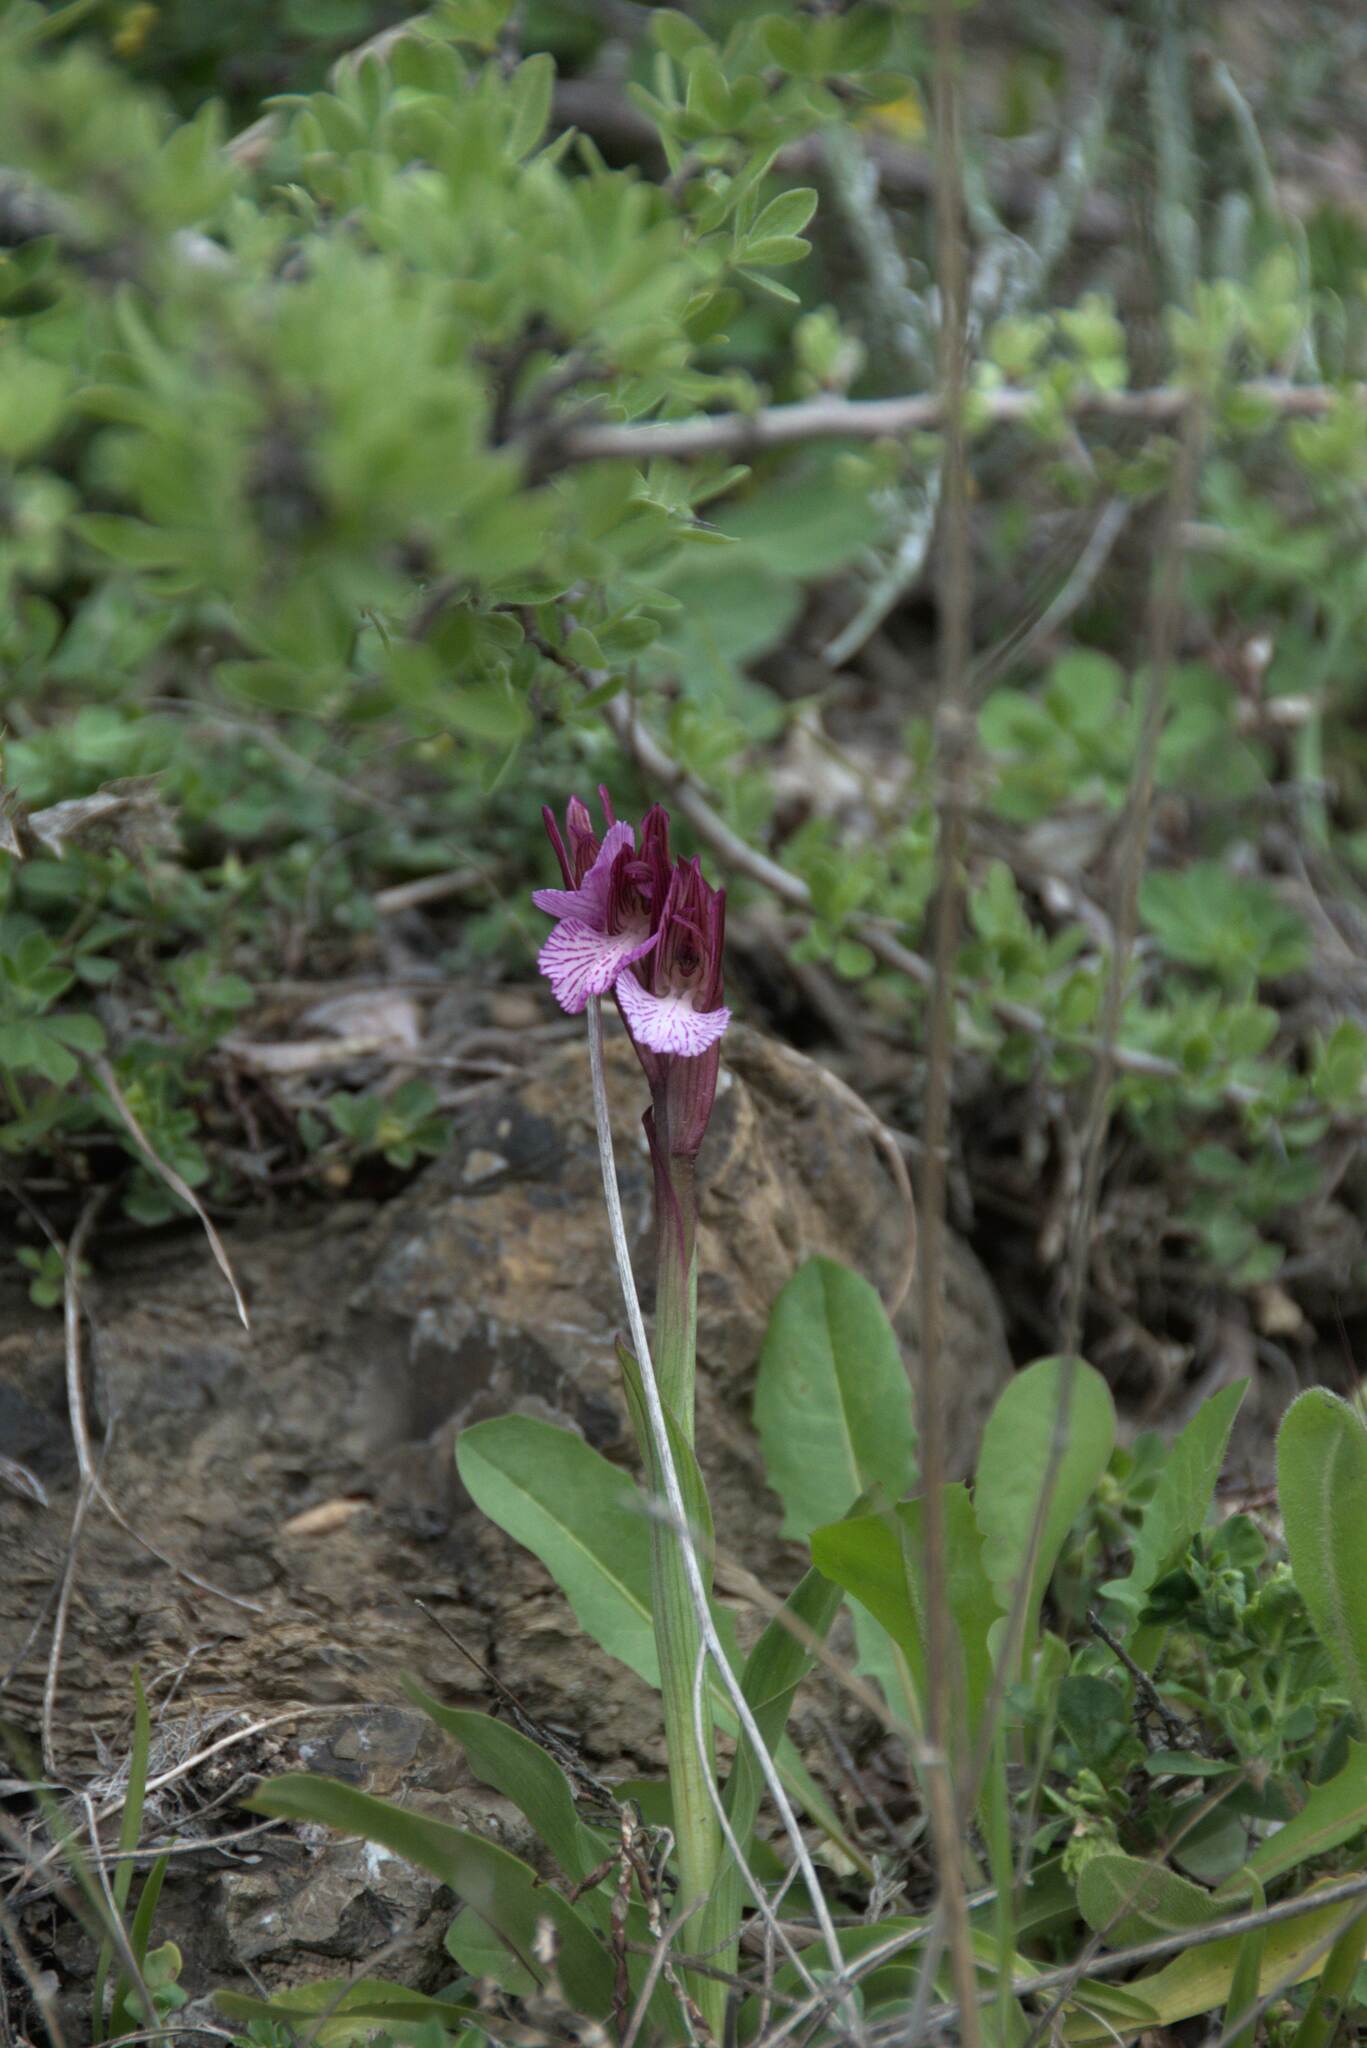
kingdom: Plantae
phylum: Tracheophyta
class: Liliopsida
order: Asparagales
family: Orchidaceae
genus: Anacamptis
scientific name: Anacamptis papilionacea
